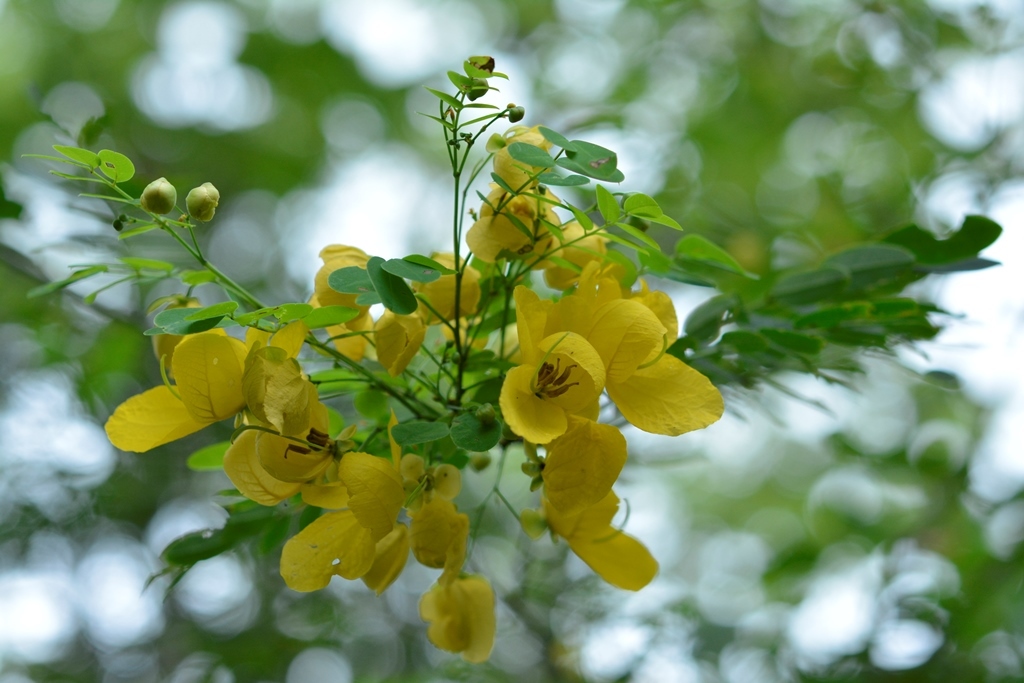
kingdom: Plantae
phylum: Tracheophyta
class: Magnoliopsida
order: Fabales
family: Fabaceae
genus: Senna
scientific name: Senna pallida
